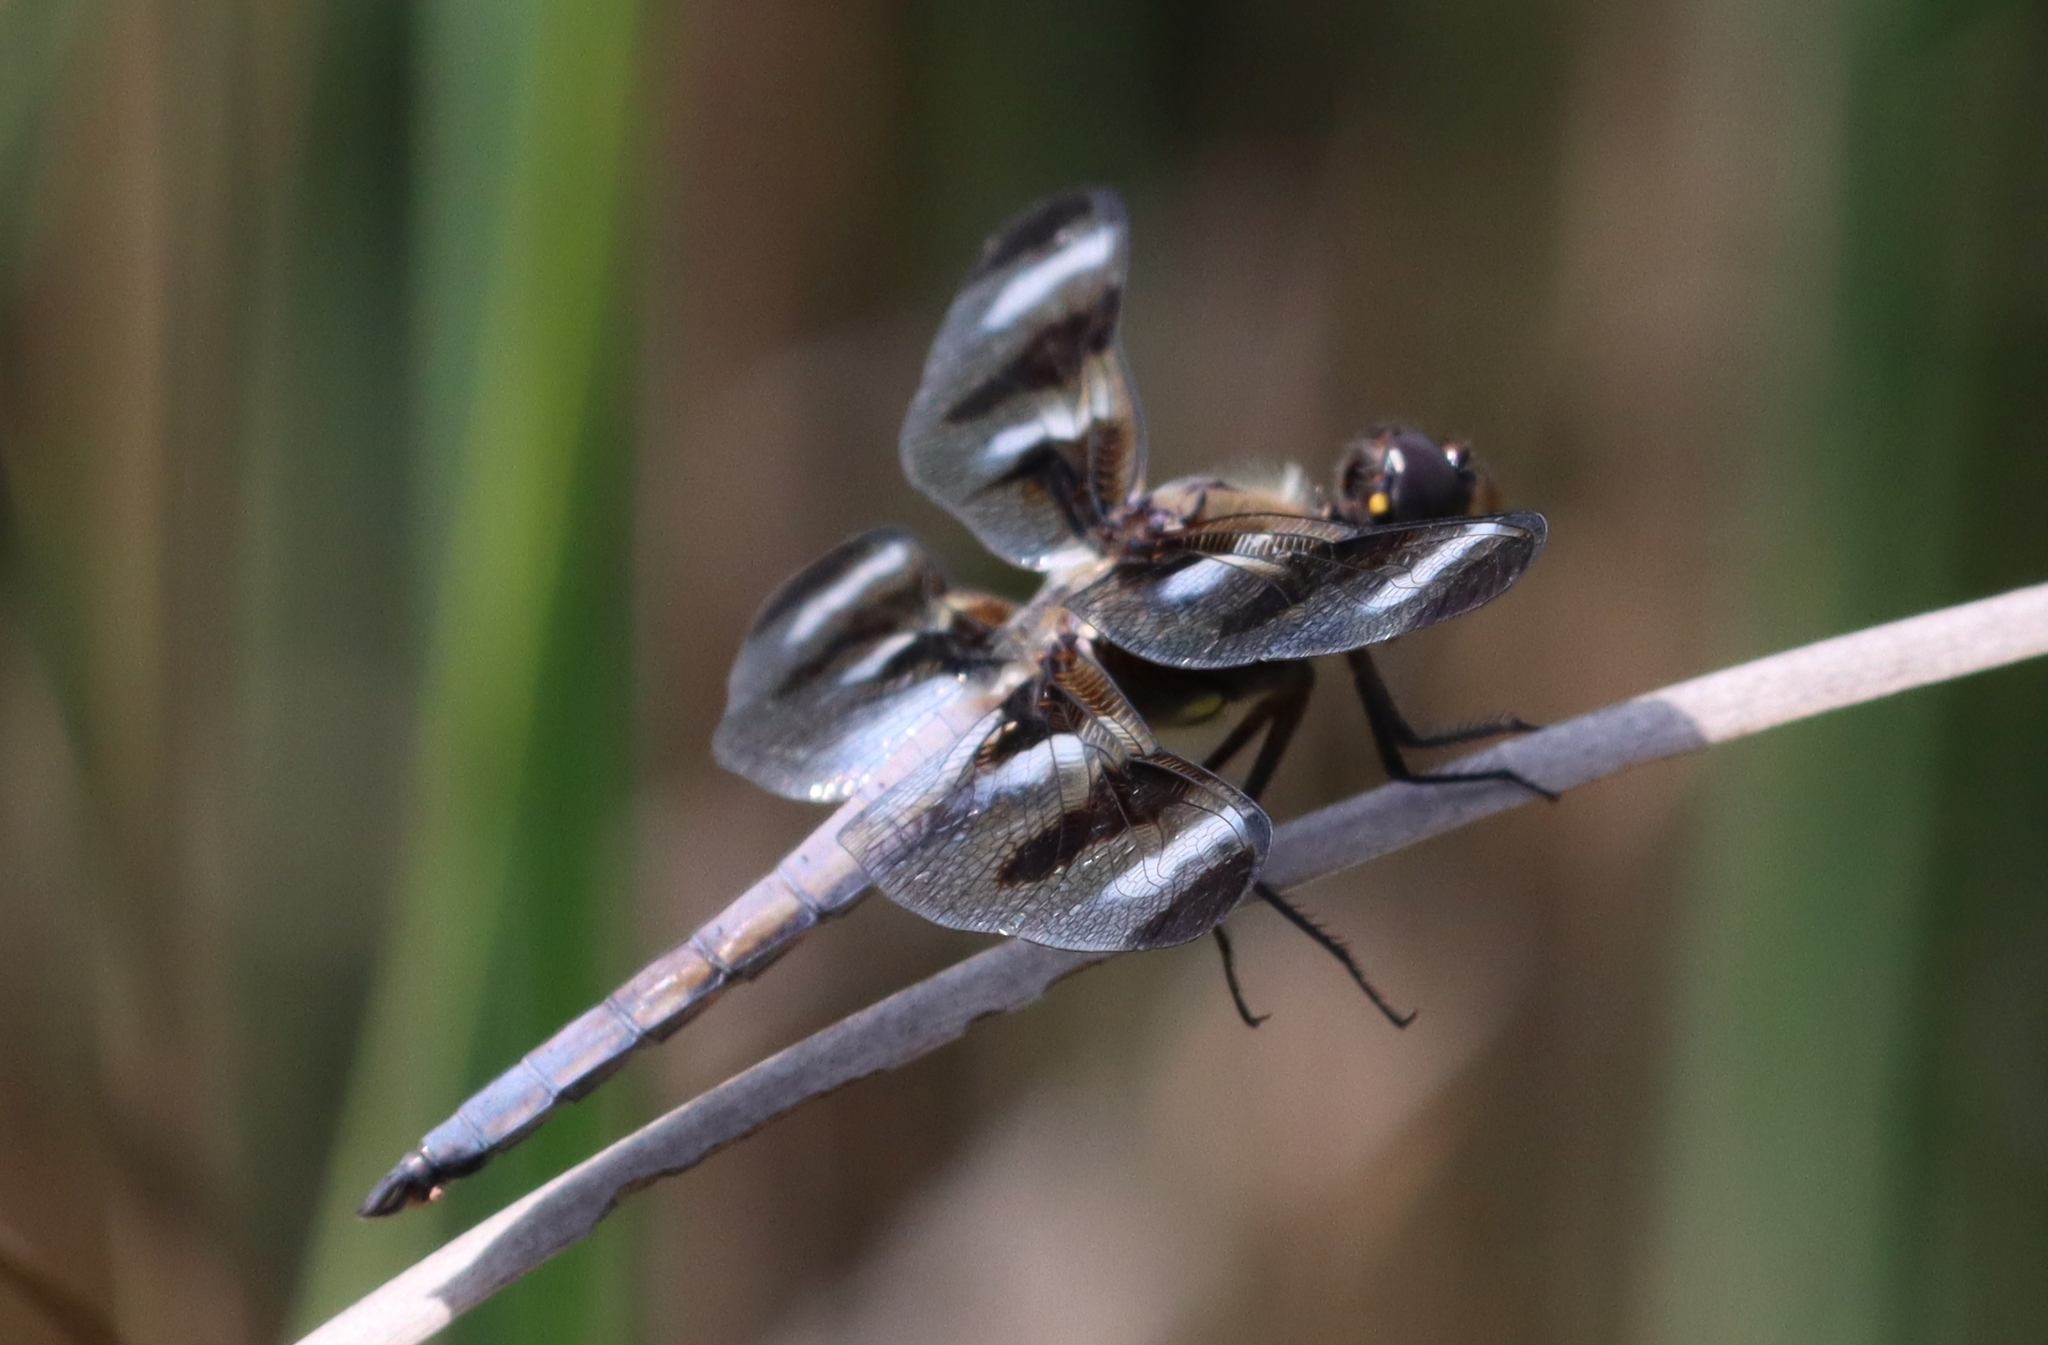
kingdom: Animalia
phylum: Arthropoda
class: Insecta
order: Odonata
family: Libellulidae
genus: Libellula
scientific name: Libellula pulchella
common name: Twelve-spotted skimmer
